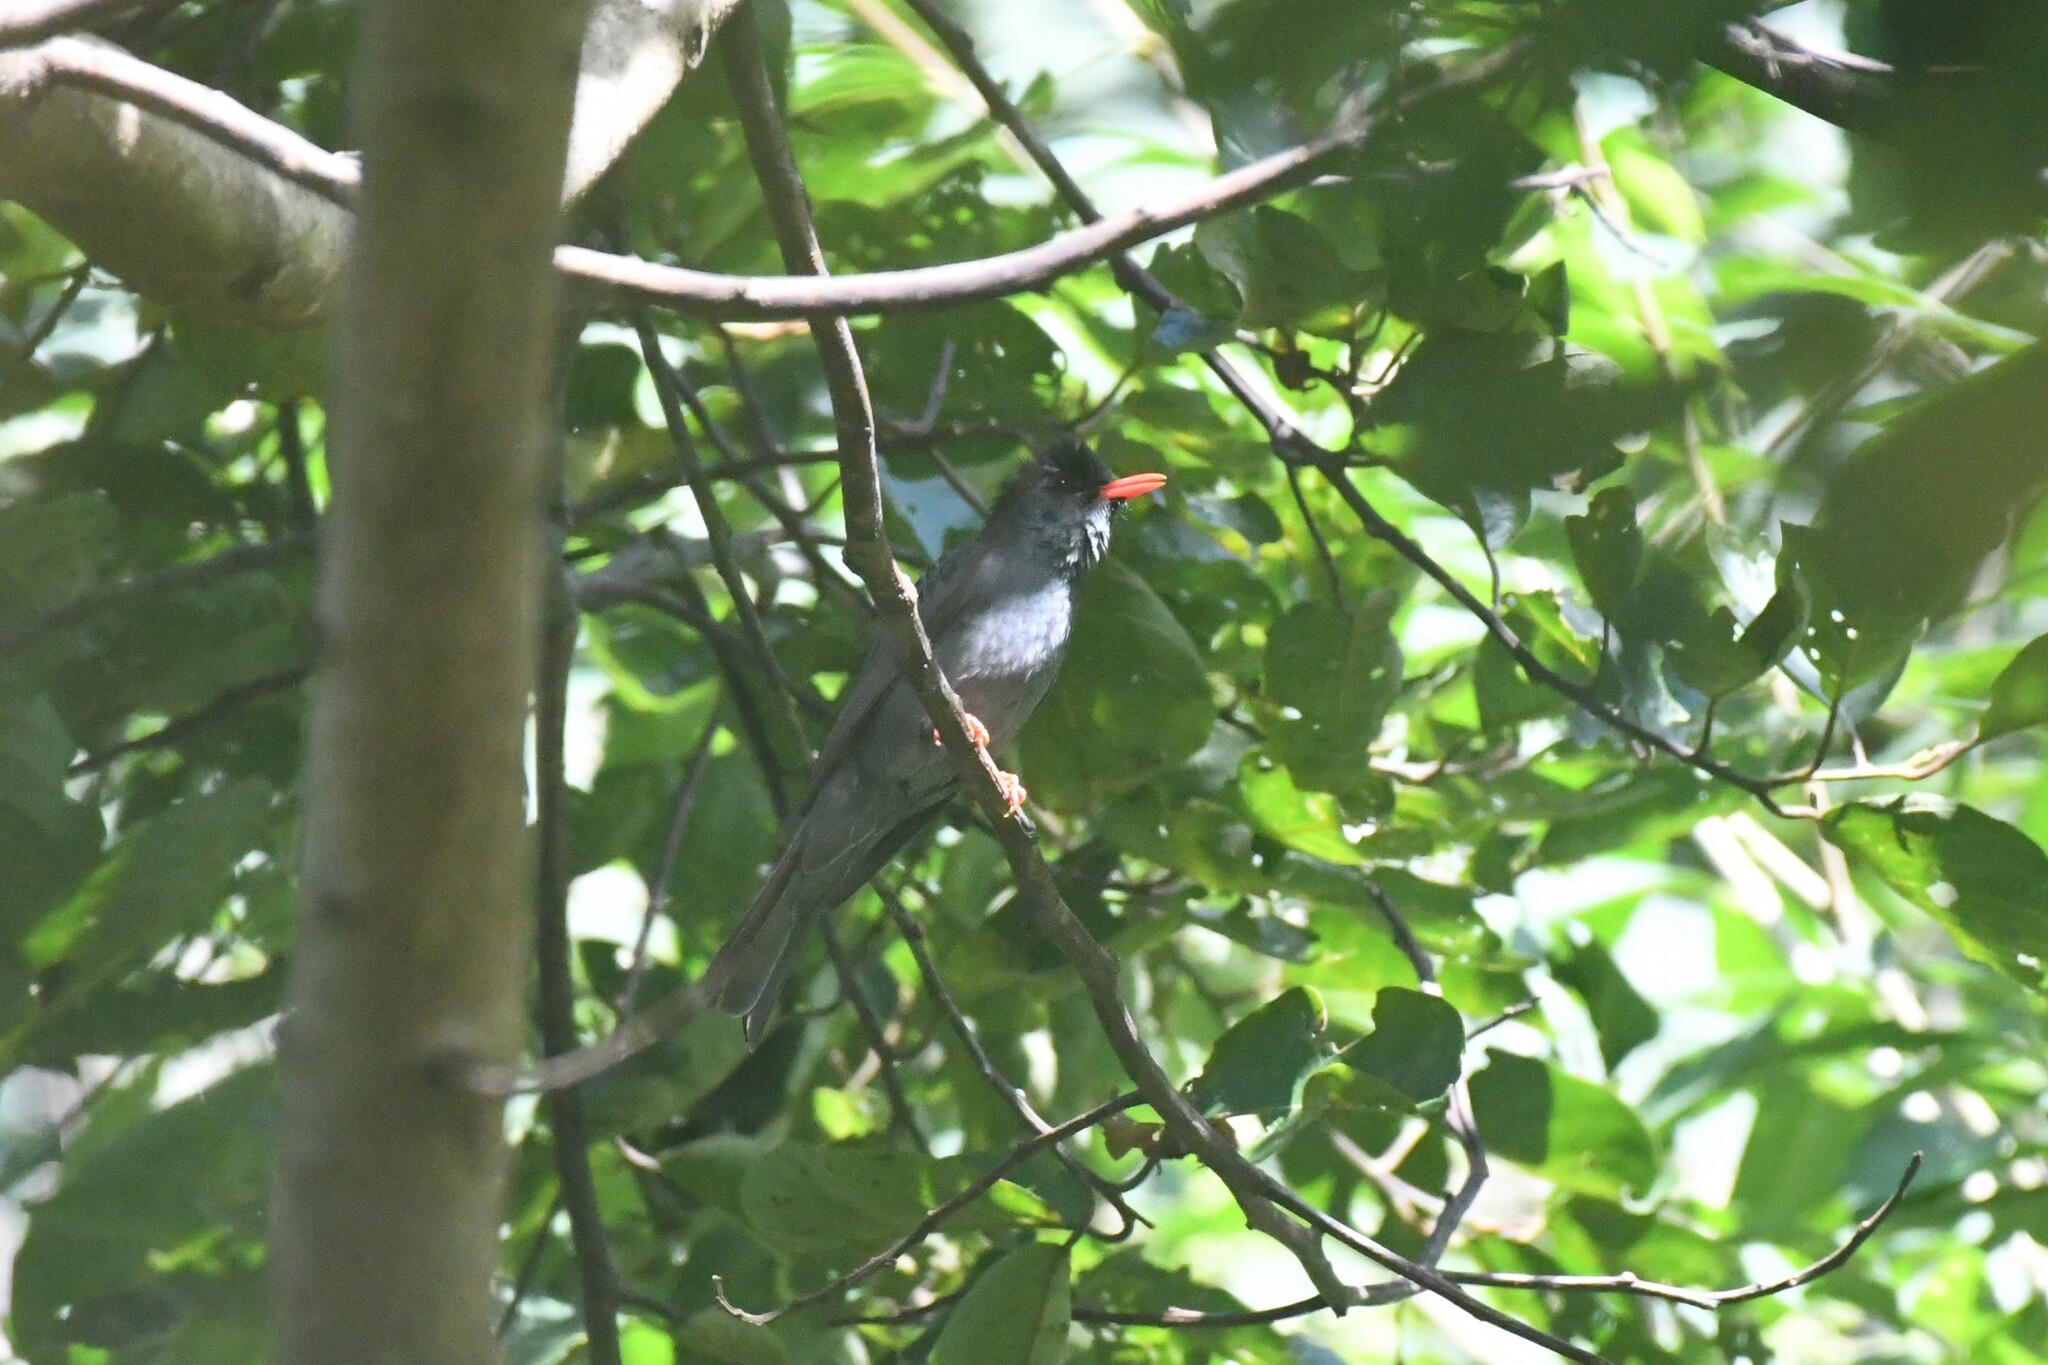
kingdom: Animalia
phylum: Chordata
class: Aves
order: Passeriformes
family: Pycnonotidae
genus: Hypsipetes
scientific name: Hypsipetes leucocephalus
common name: Black bulbul
